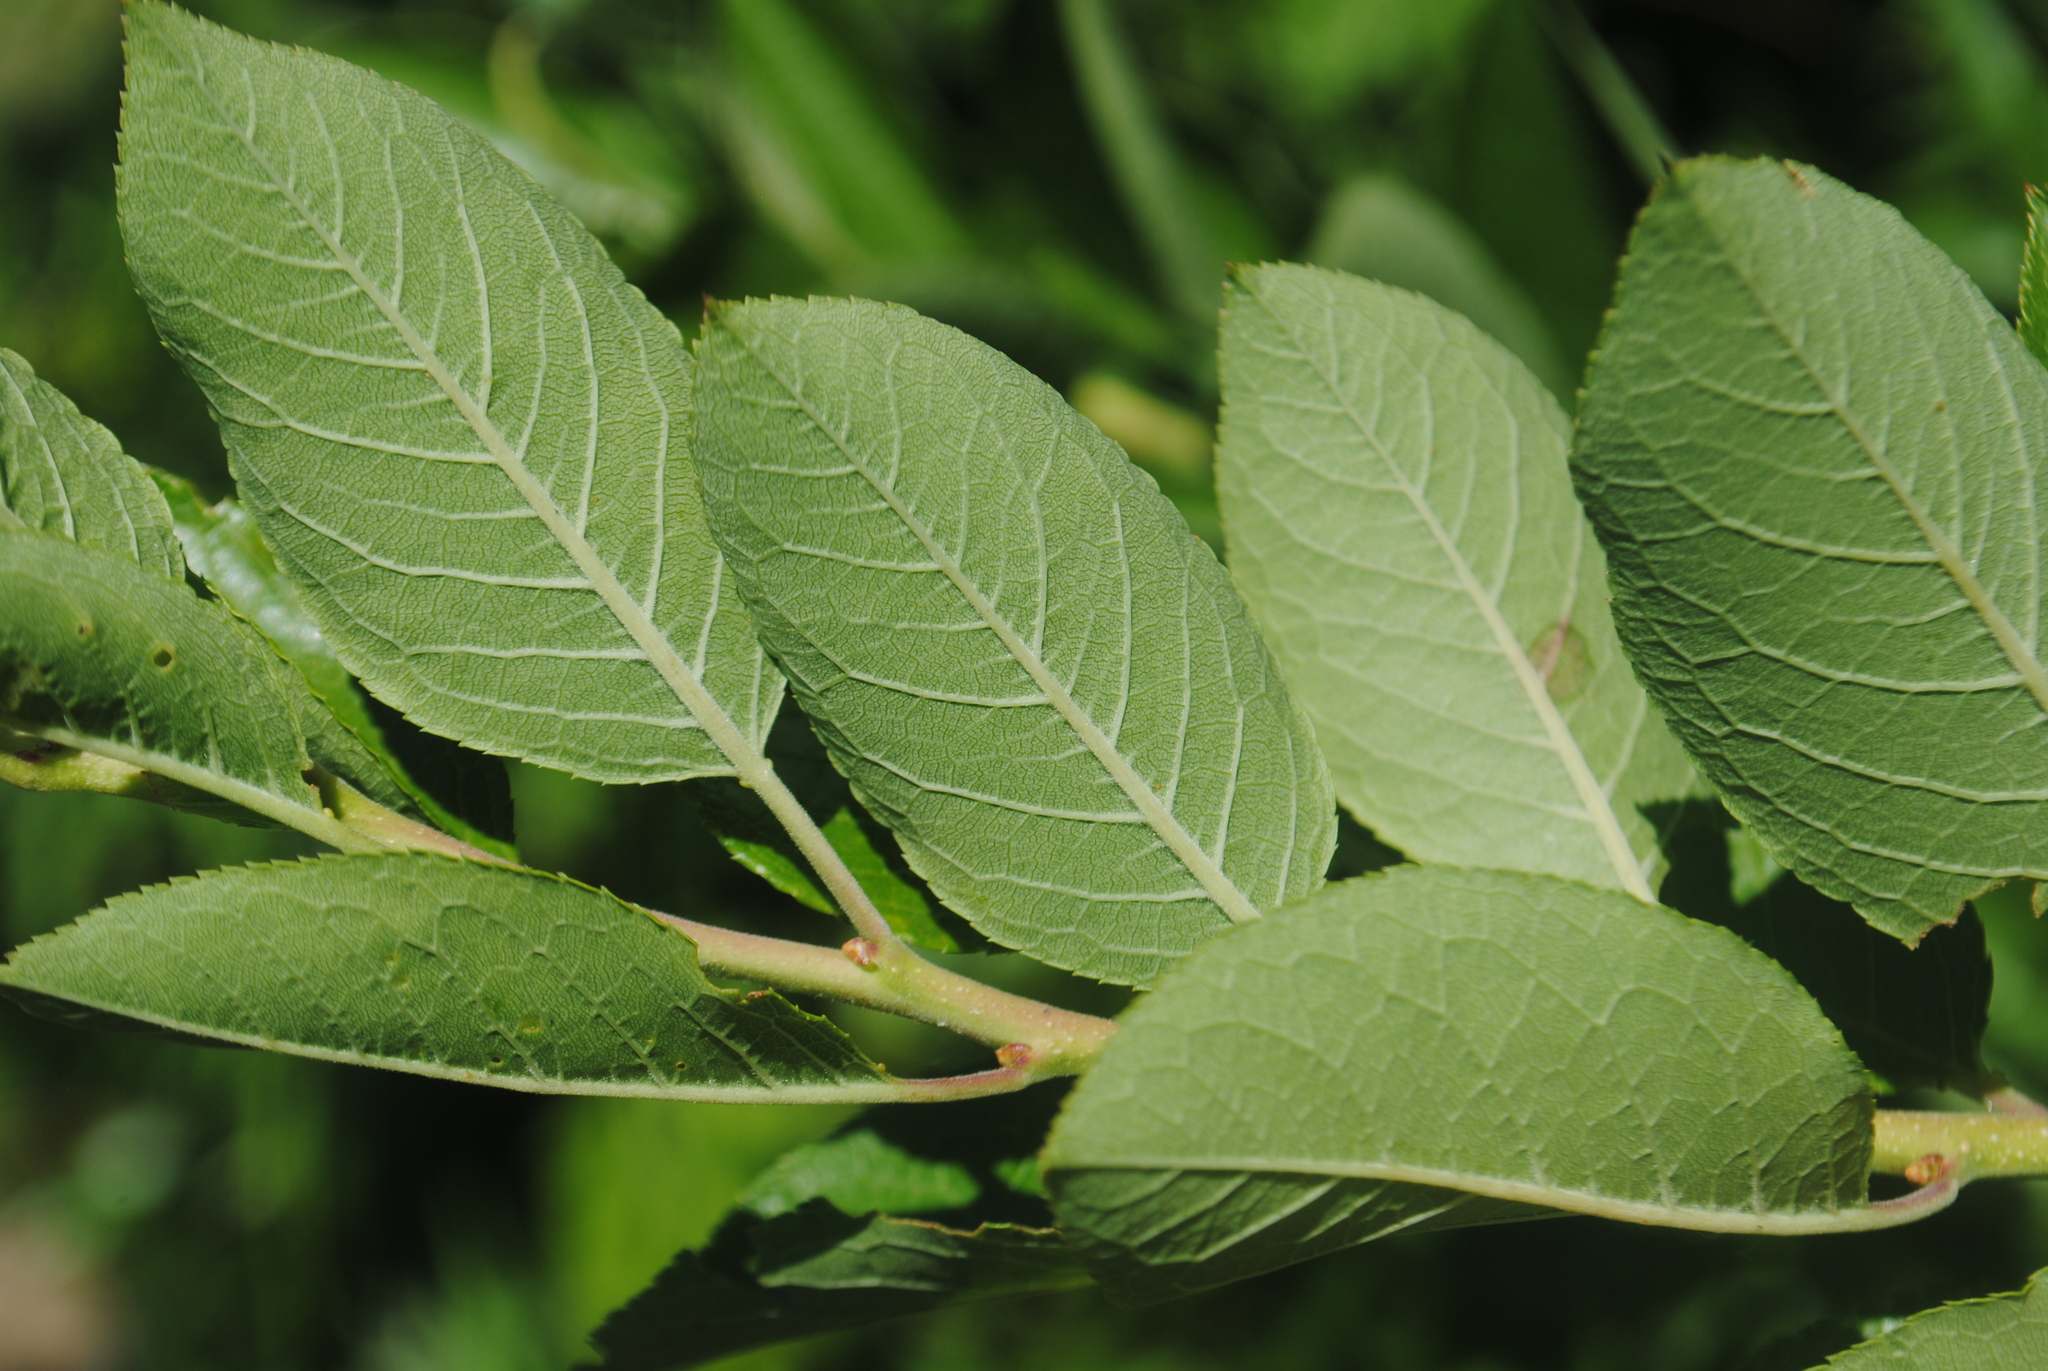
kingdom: Plantae
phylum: Tracheophyta
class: Magnoliopsida
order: Rosales
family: Rosaceae
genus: Prunus
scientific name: Prunus maritima
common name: Beach plum
